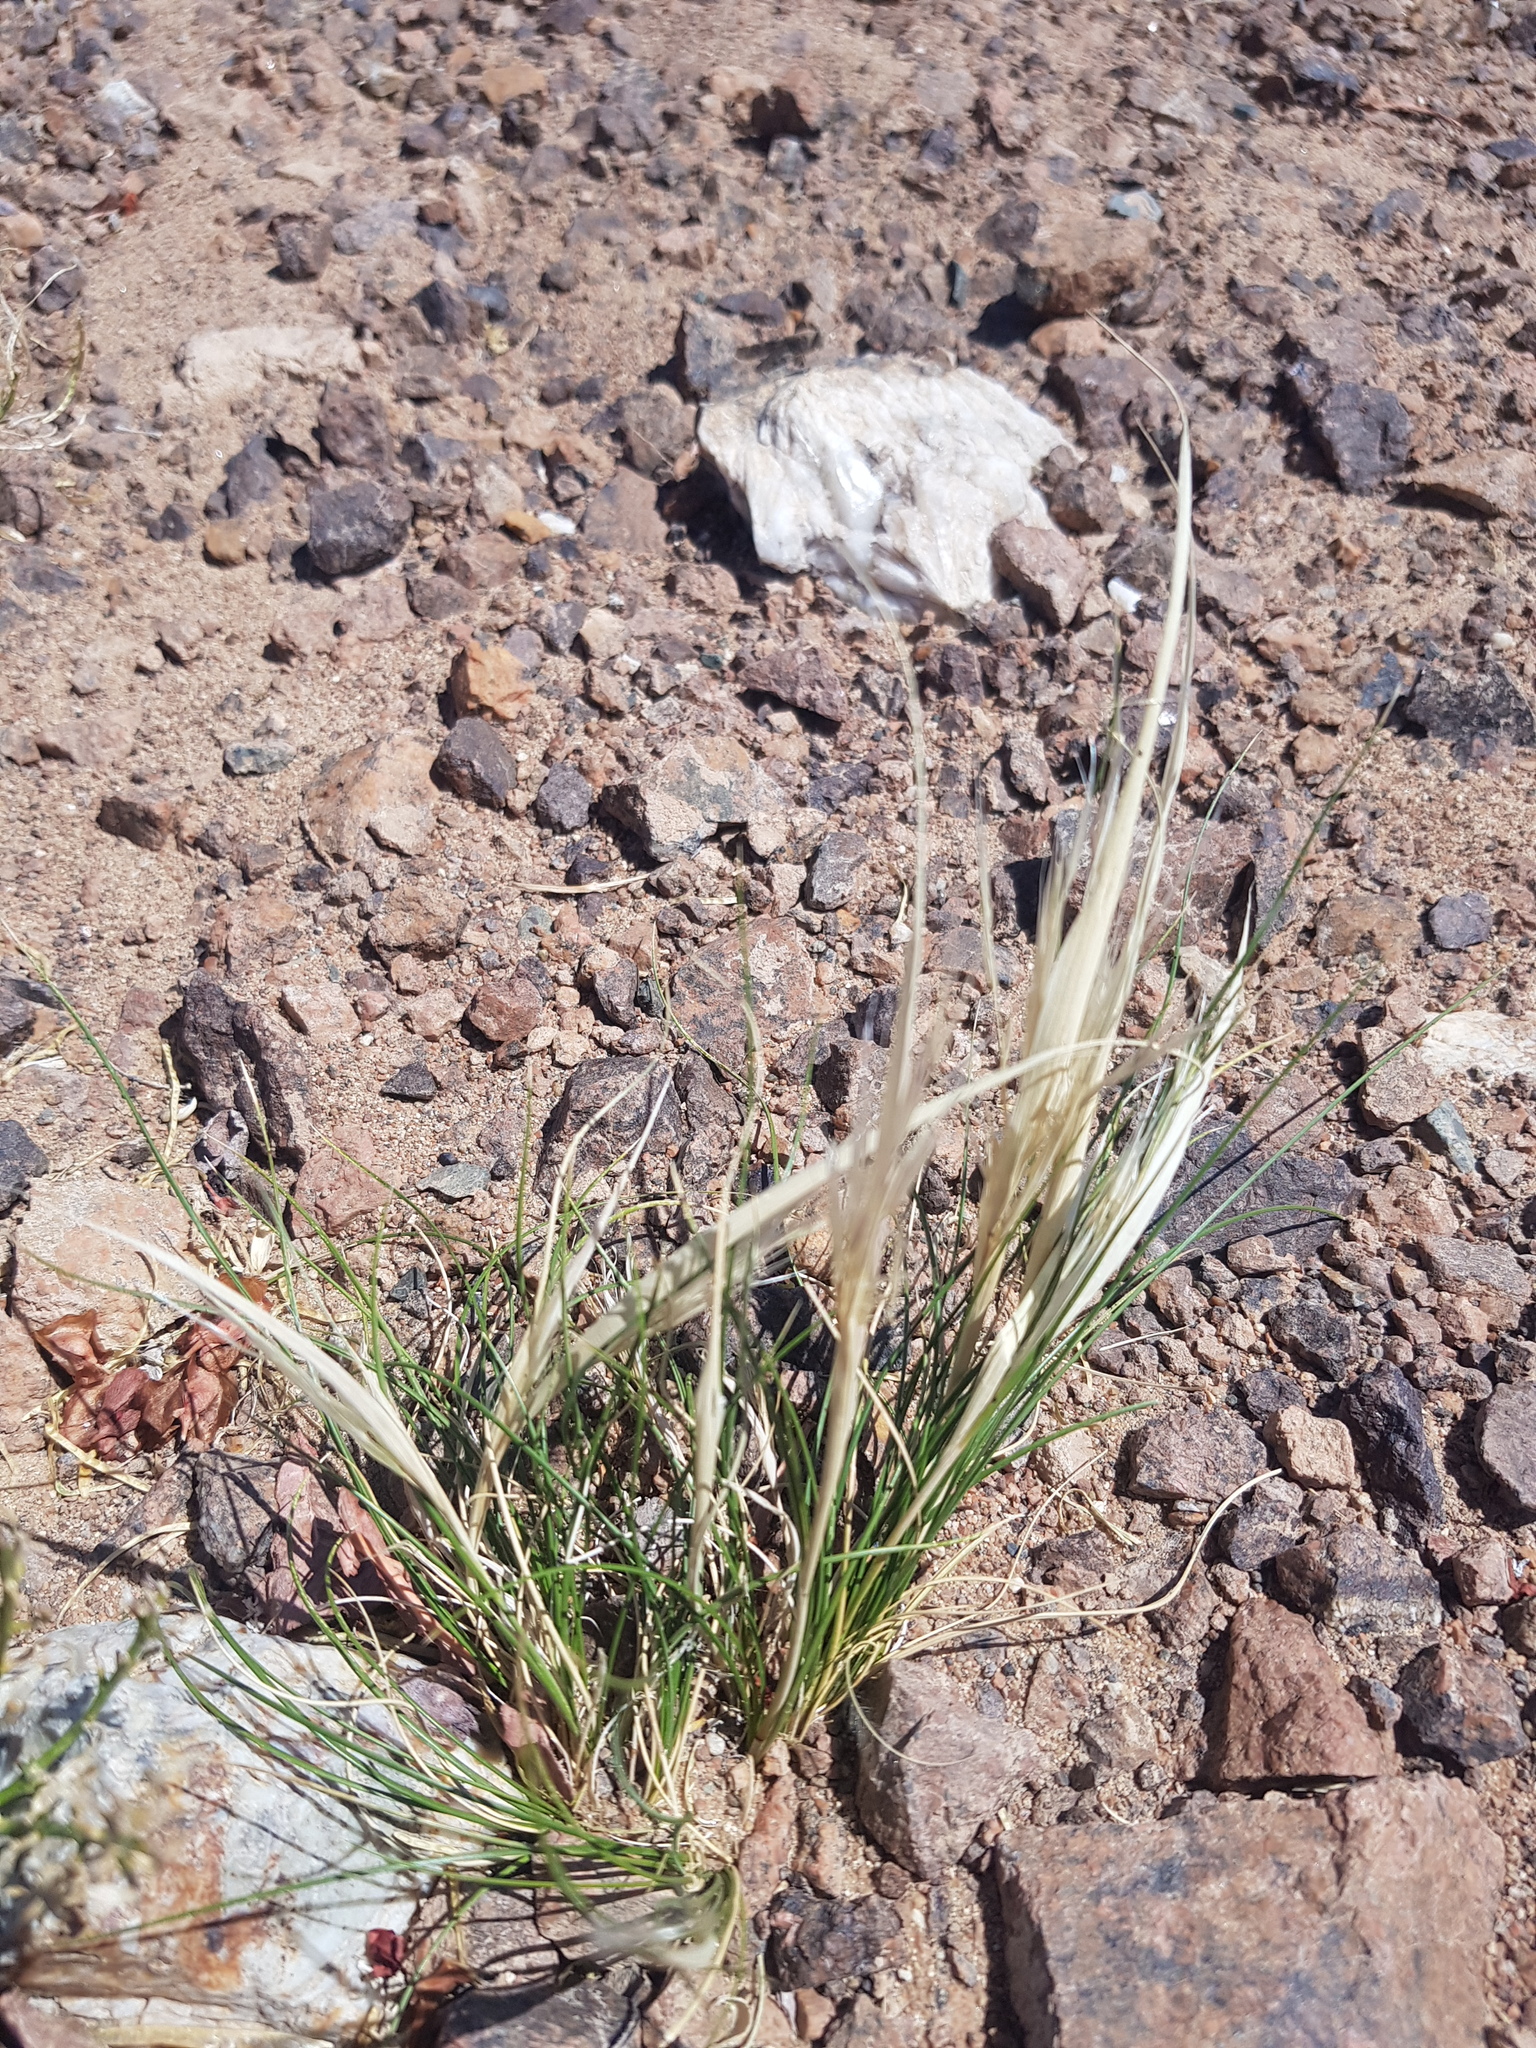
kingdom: Plantae
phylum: Tracheophyta
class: Liliopsida
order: Poales
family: Poaceae
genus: Stipa
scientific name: Stipa glareosa
